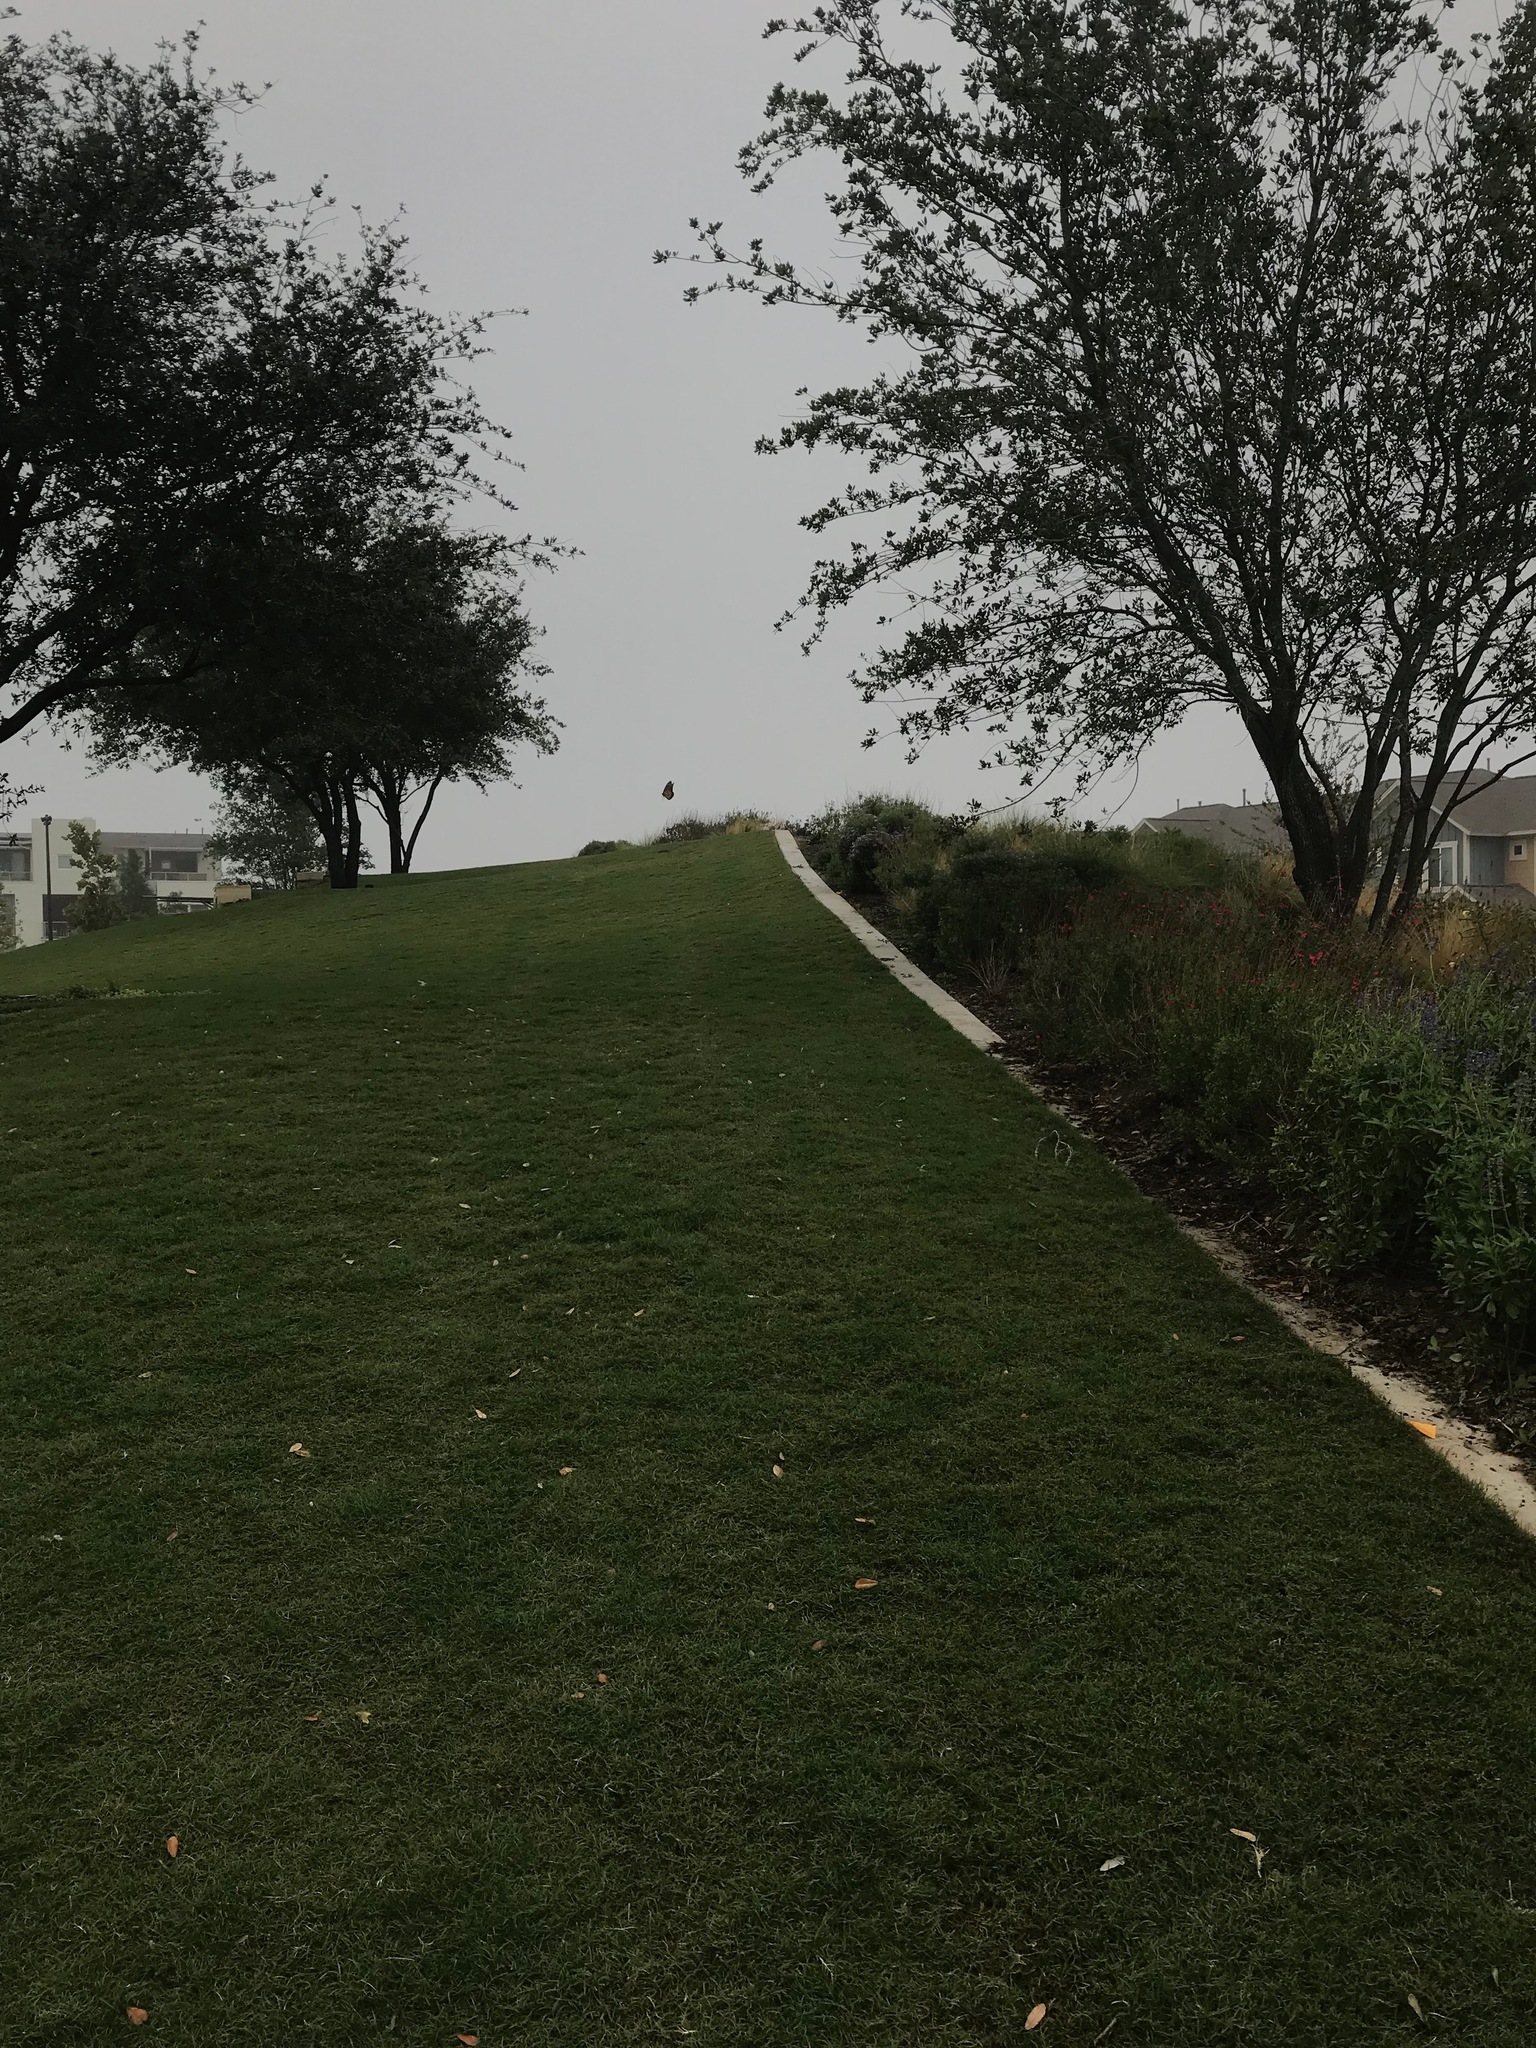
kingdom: Animalia
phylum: Arthropoda
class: Insecta
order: Lepidoptera
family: Nymphalidae
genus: Danaus
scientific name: Danaus plexippus
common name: Monarch
